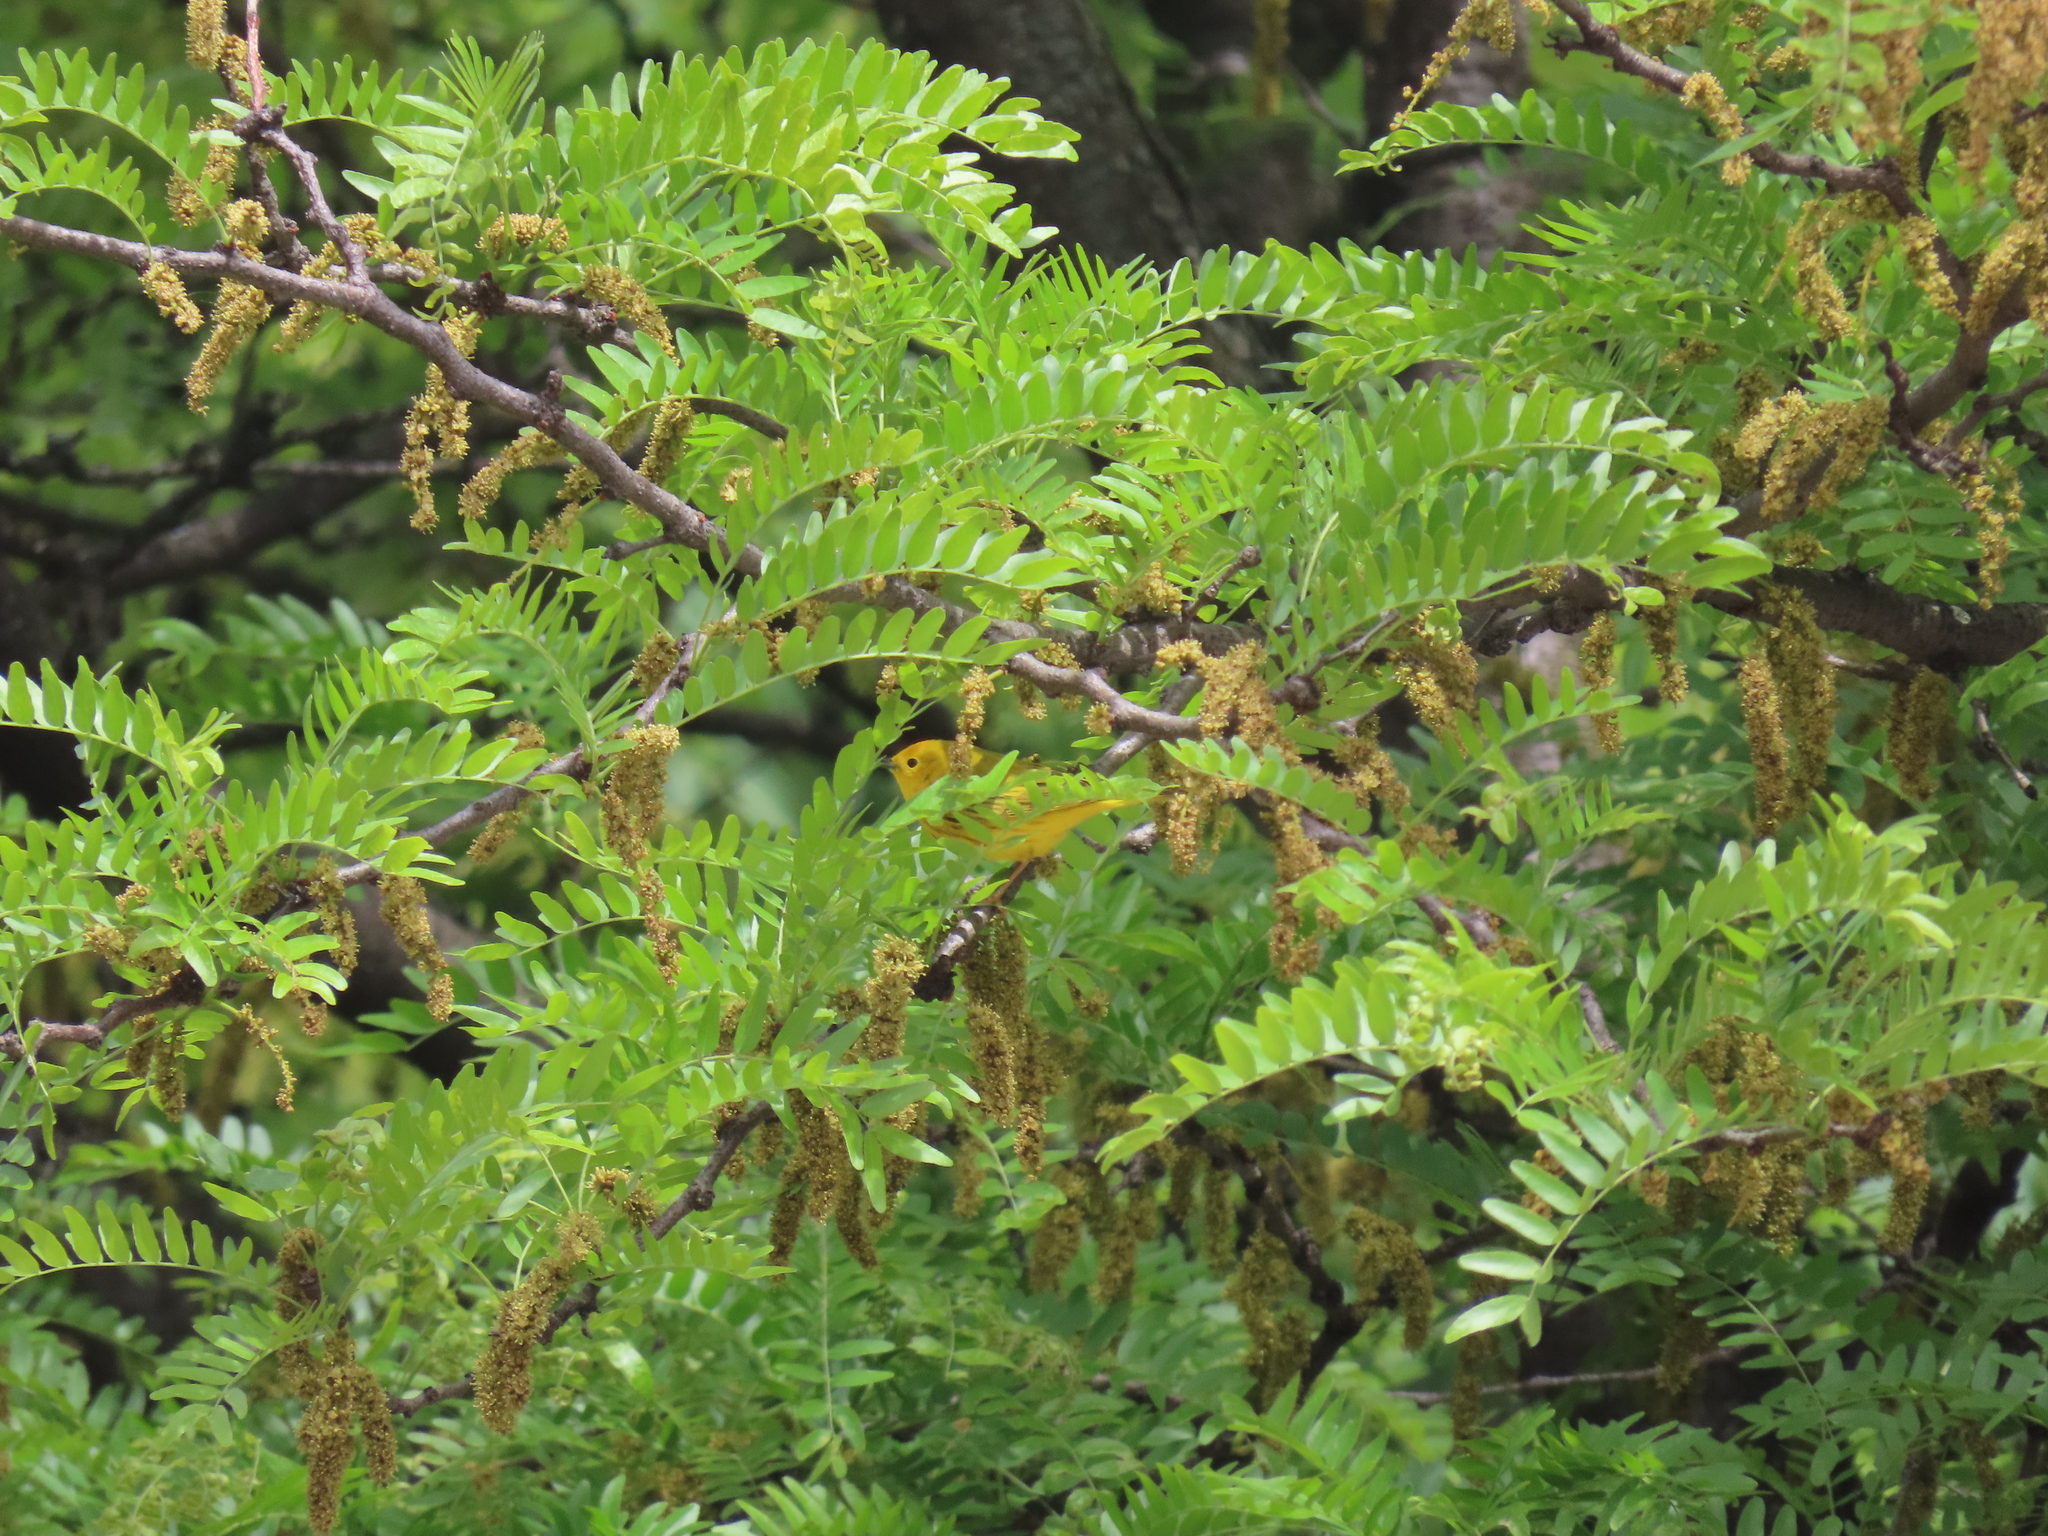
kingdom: Animalia
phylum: Chordata
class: Aves
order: Passeriformes
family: Parulidae
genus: Setophaga
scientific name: Setophaga petechia
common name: Yellow warbler
